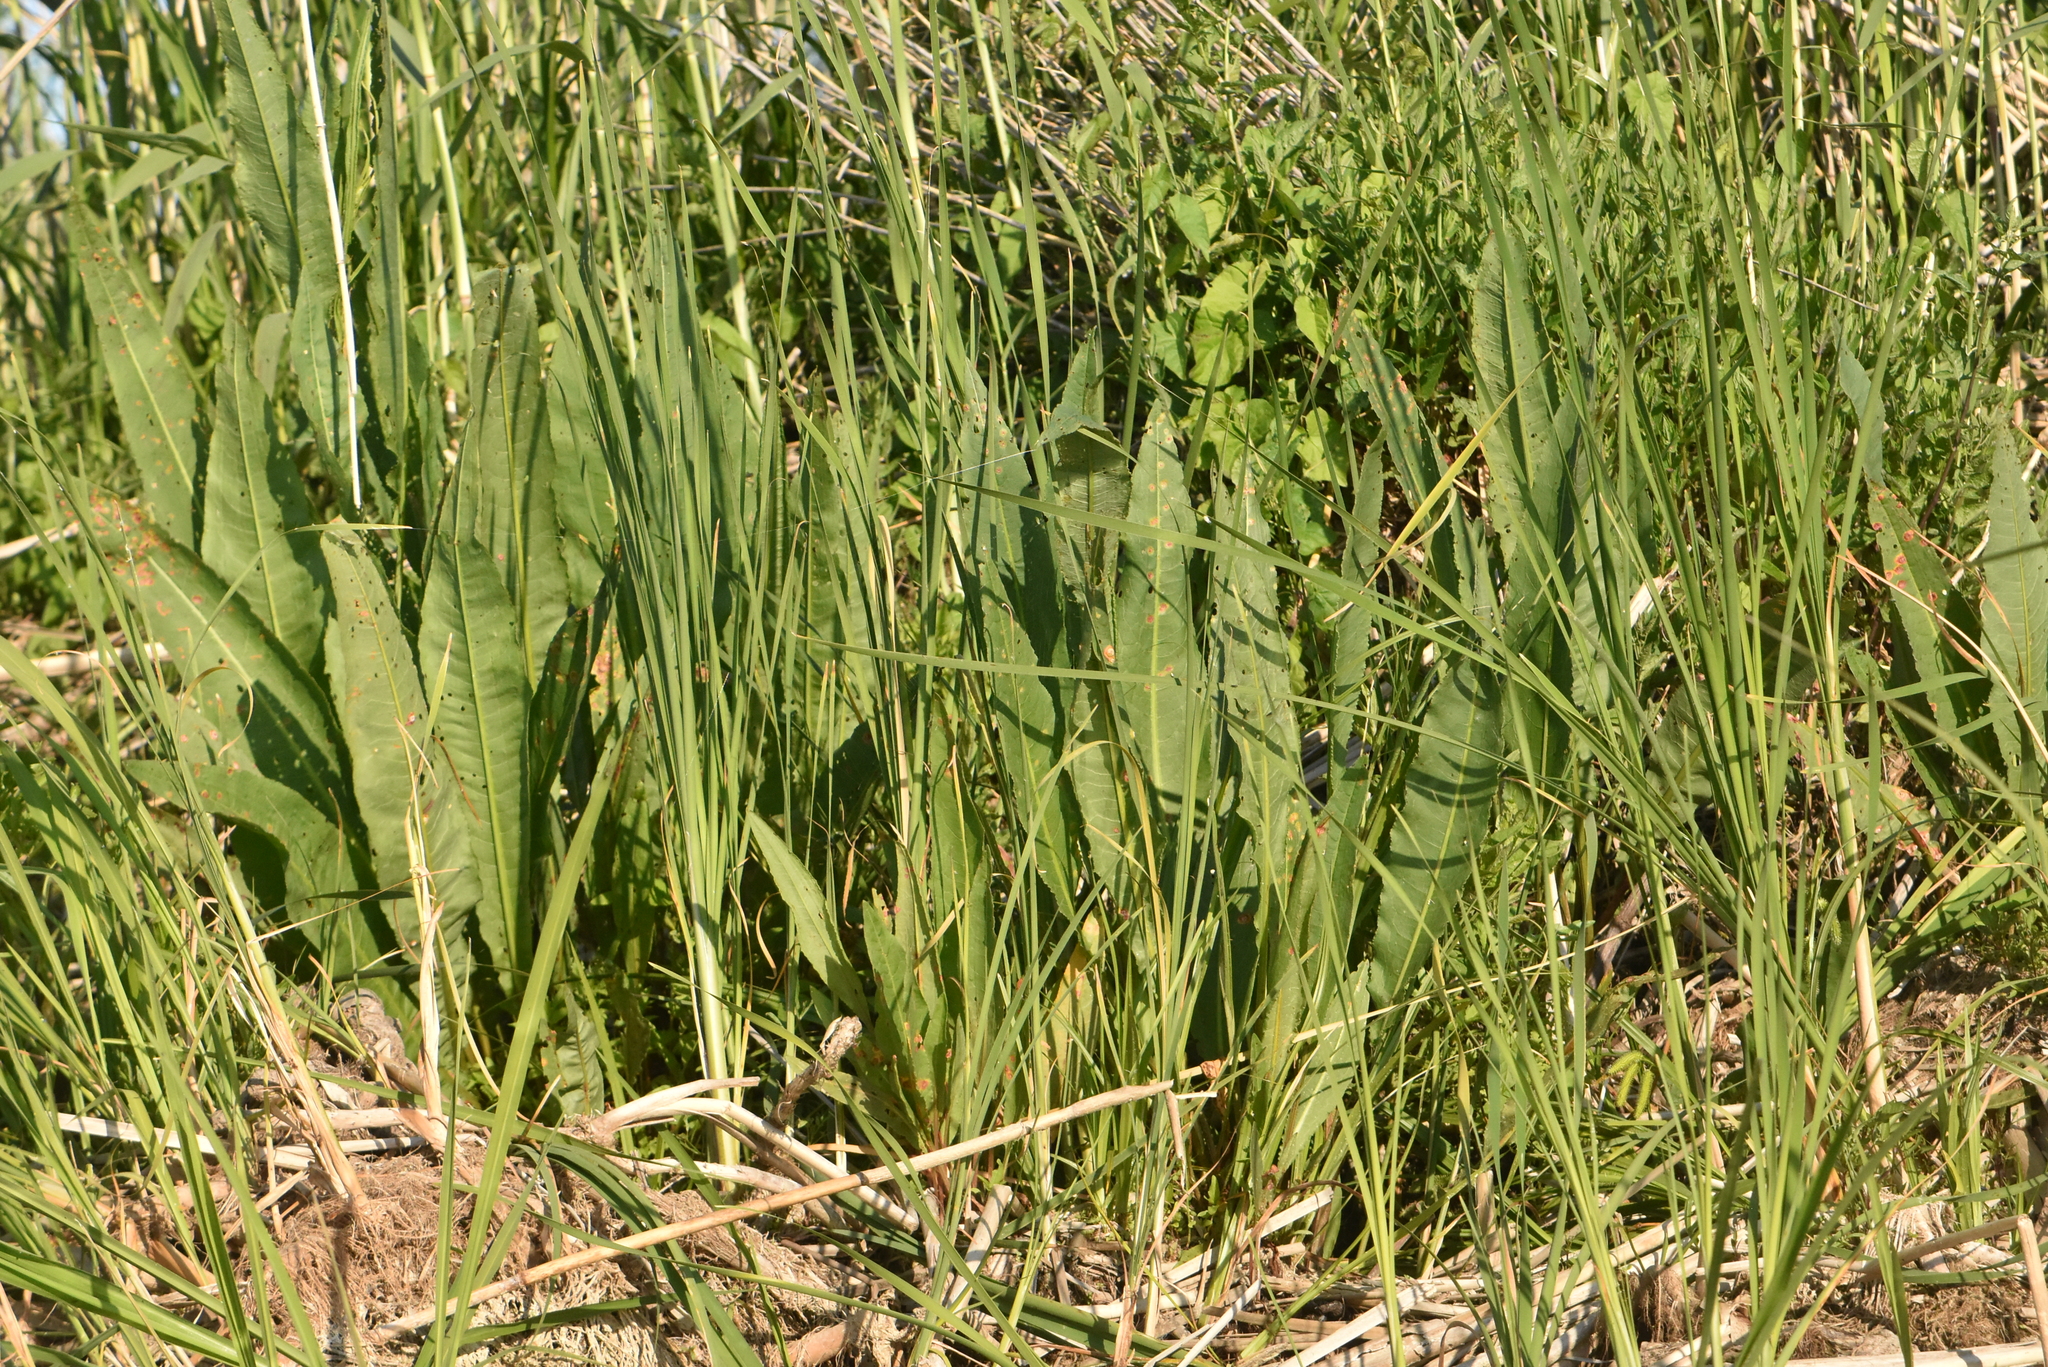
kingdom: Plantae
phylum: Tracheophyta
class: Magnoliopsida
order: Caryophyllales
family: Polygonaceae
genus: Rumex
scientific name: Rumex hydrolapathum
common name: Water dock
